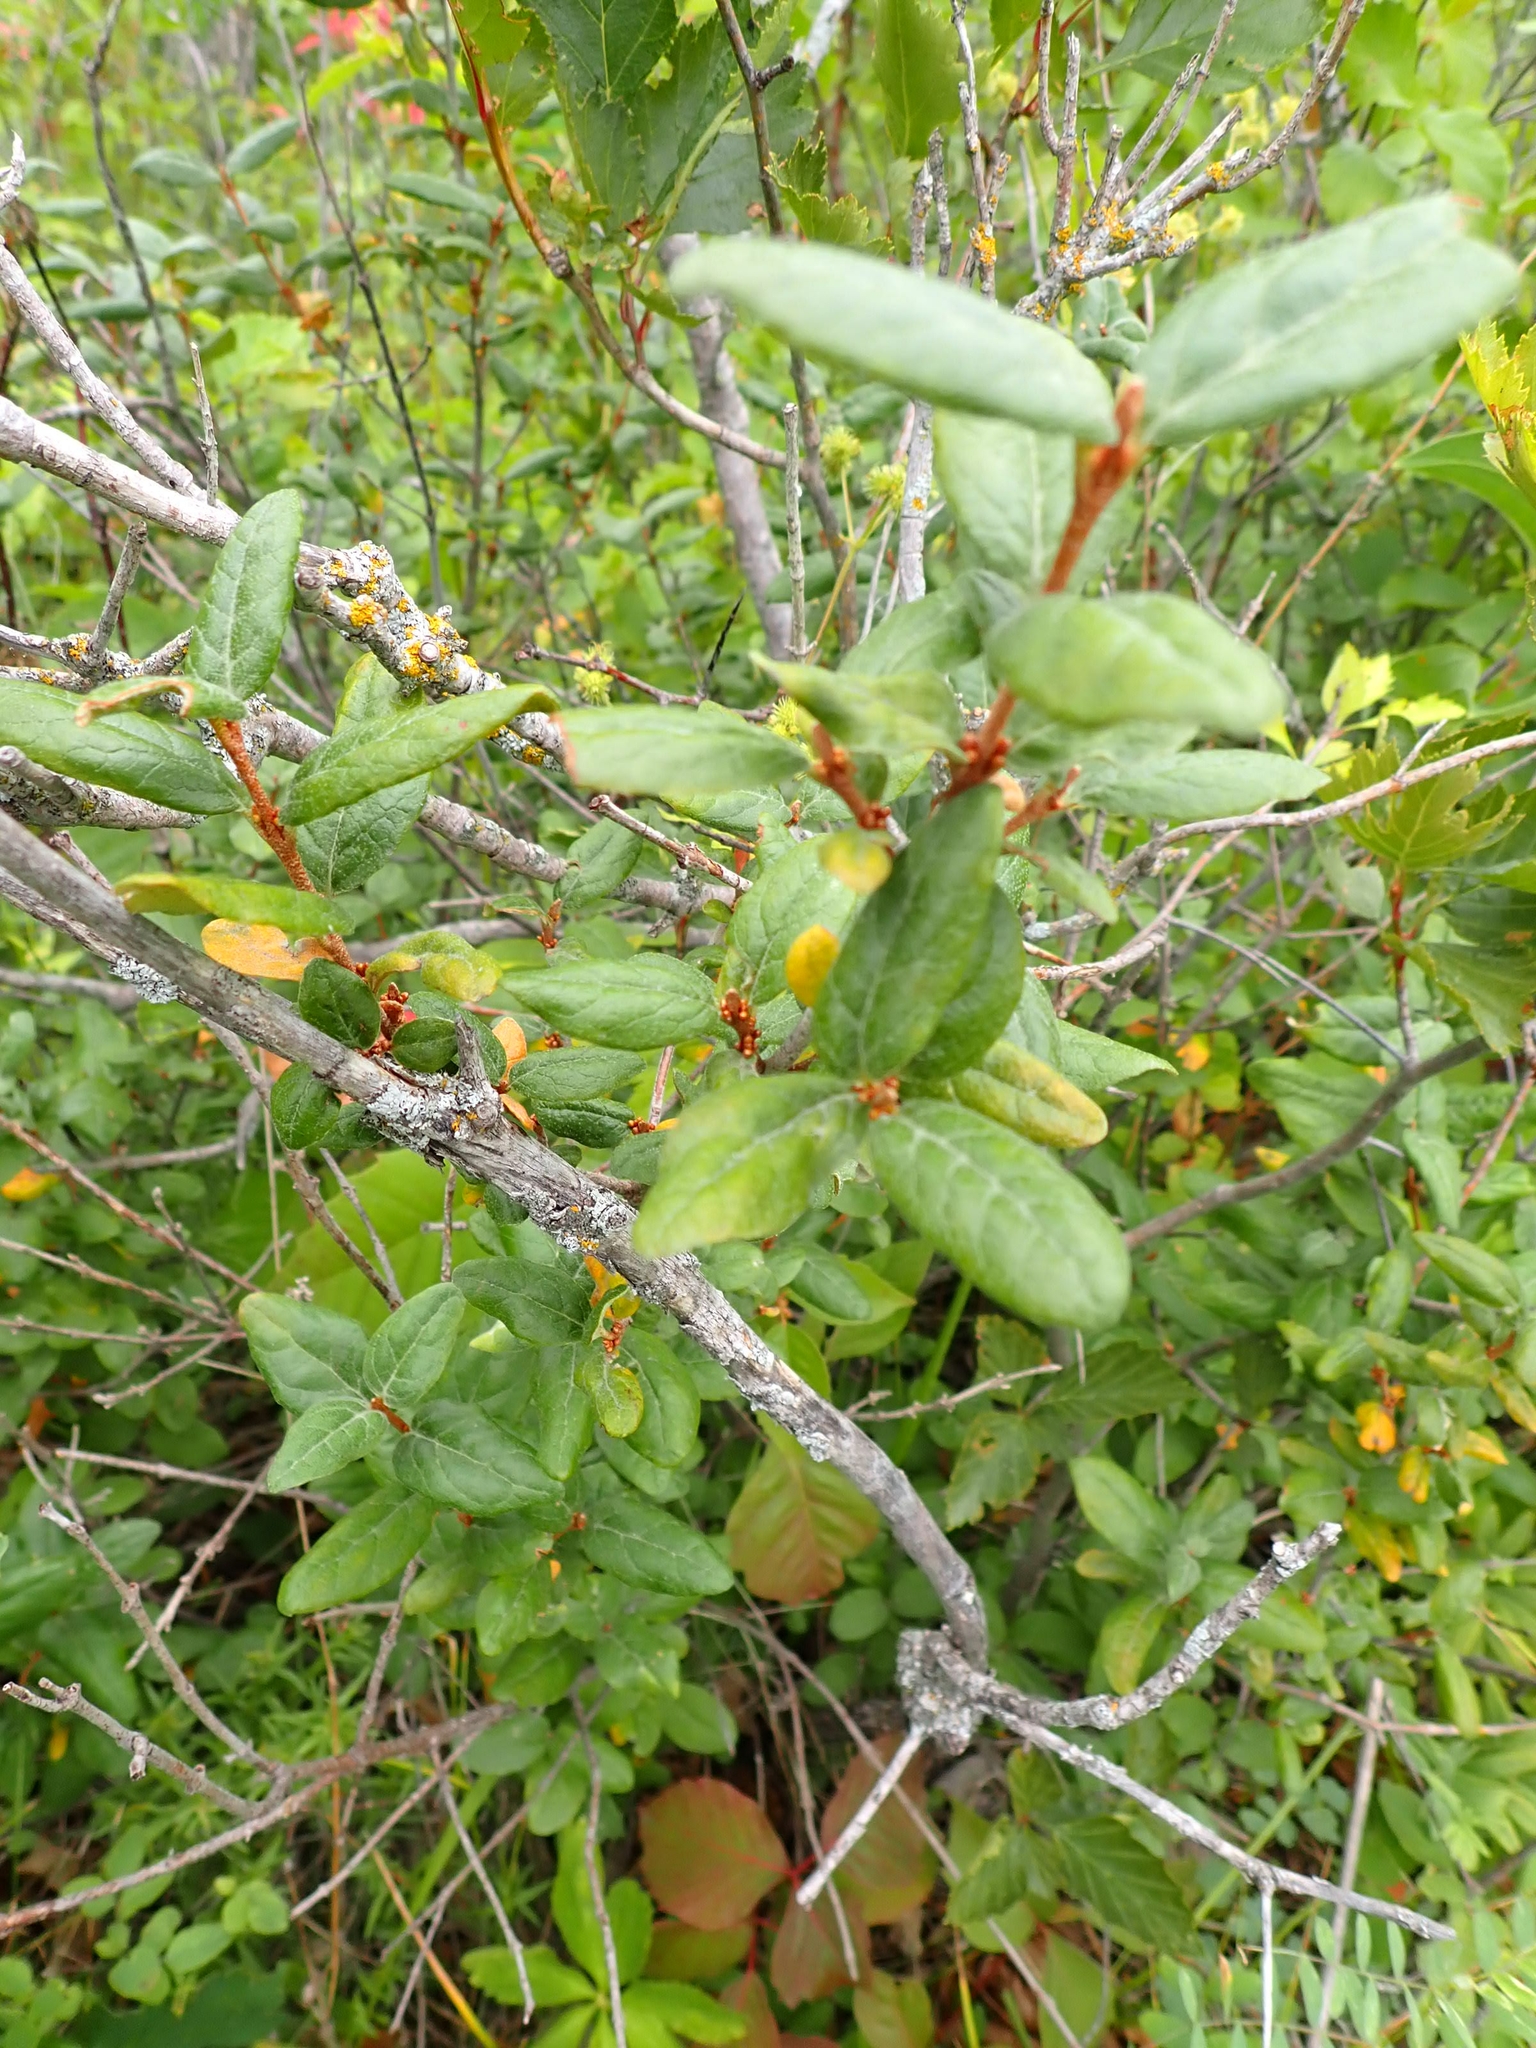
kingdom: Plantae
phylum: Tracheophyta
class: Magnoliopsida
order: Rosales
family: Elaeagnaceae
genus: Shepherdia
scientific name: Shepherdia canadensis
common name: Soapberry
